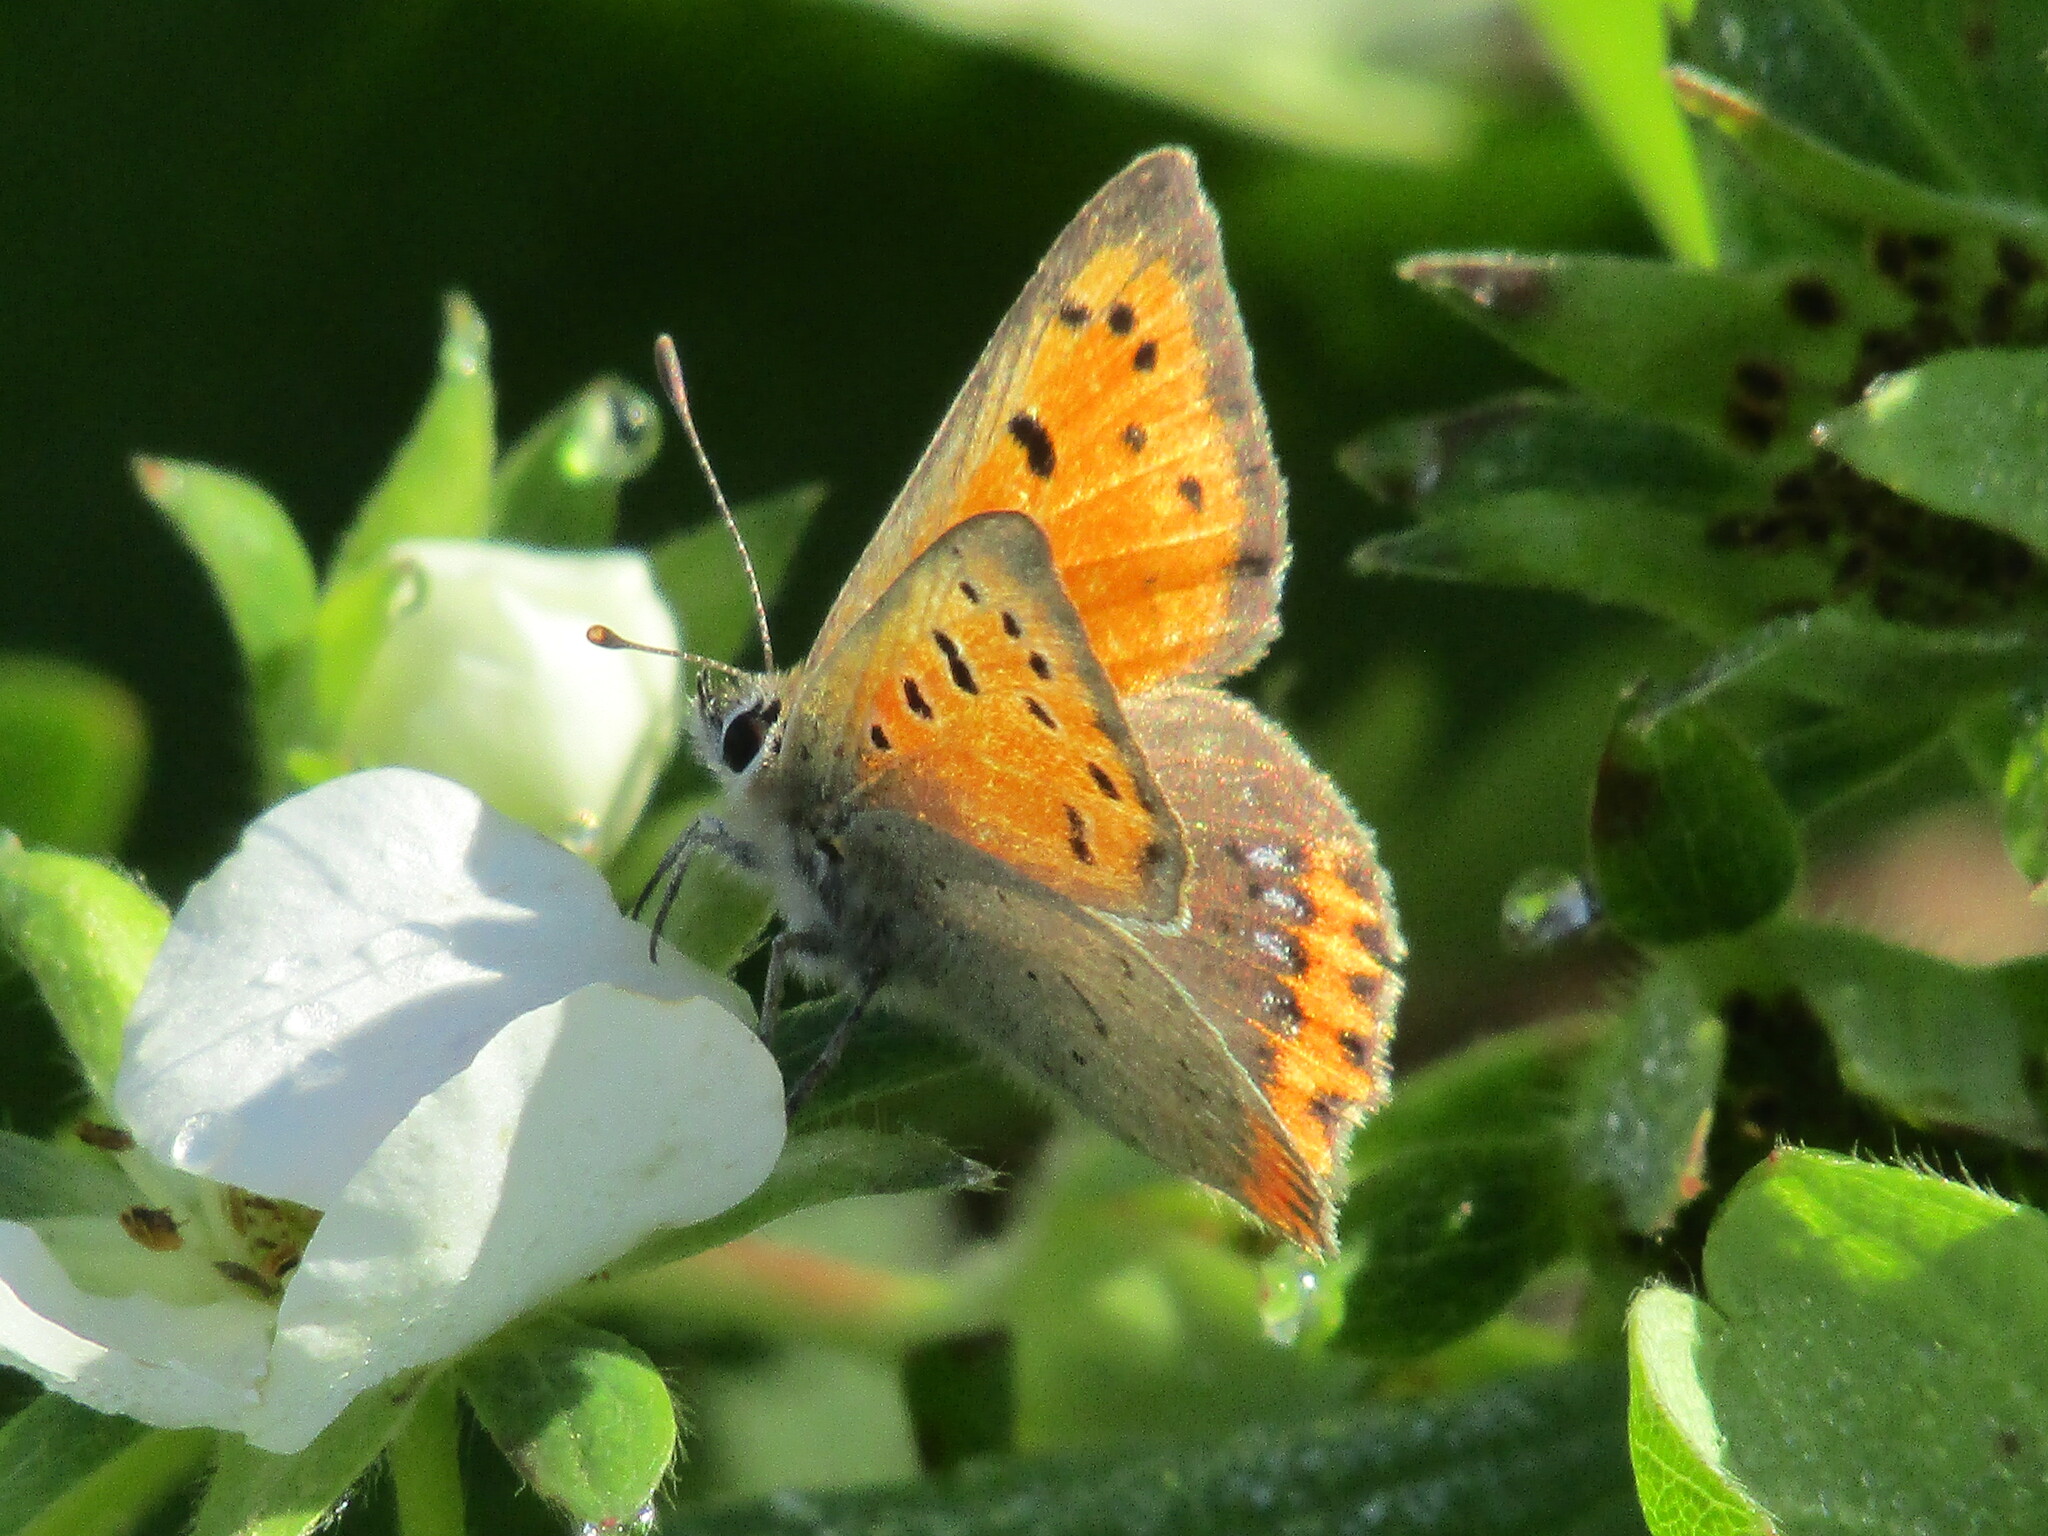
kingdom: Animalia
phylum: Arthropoda
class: Insecta
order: Lepidoptera
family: Lycaenidae
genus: Lycaena
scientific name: Lycaena phlaeas
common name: Small copper
